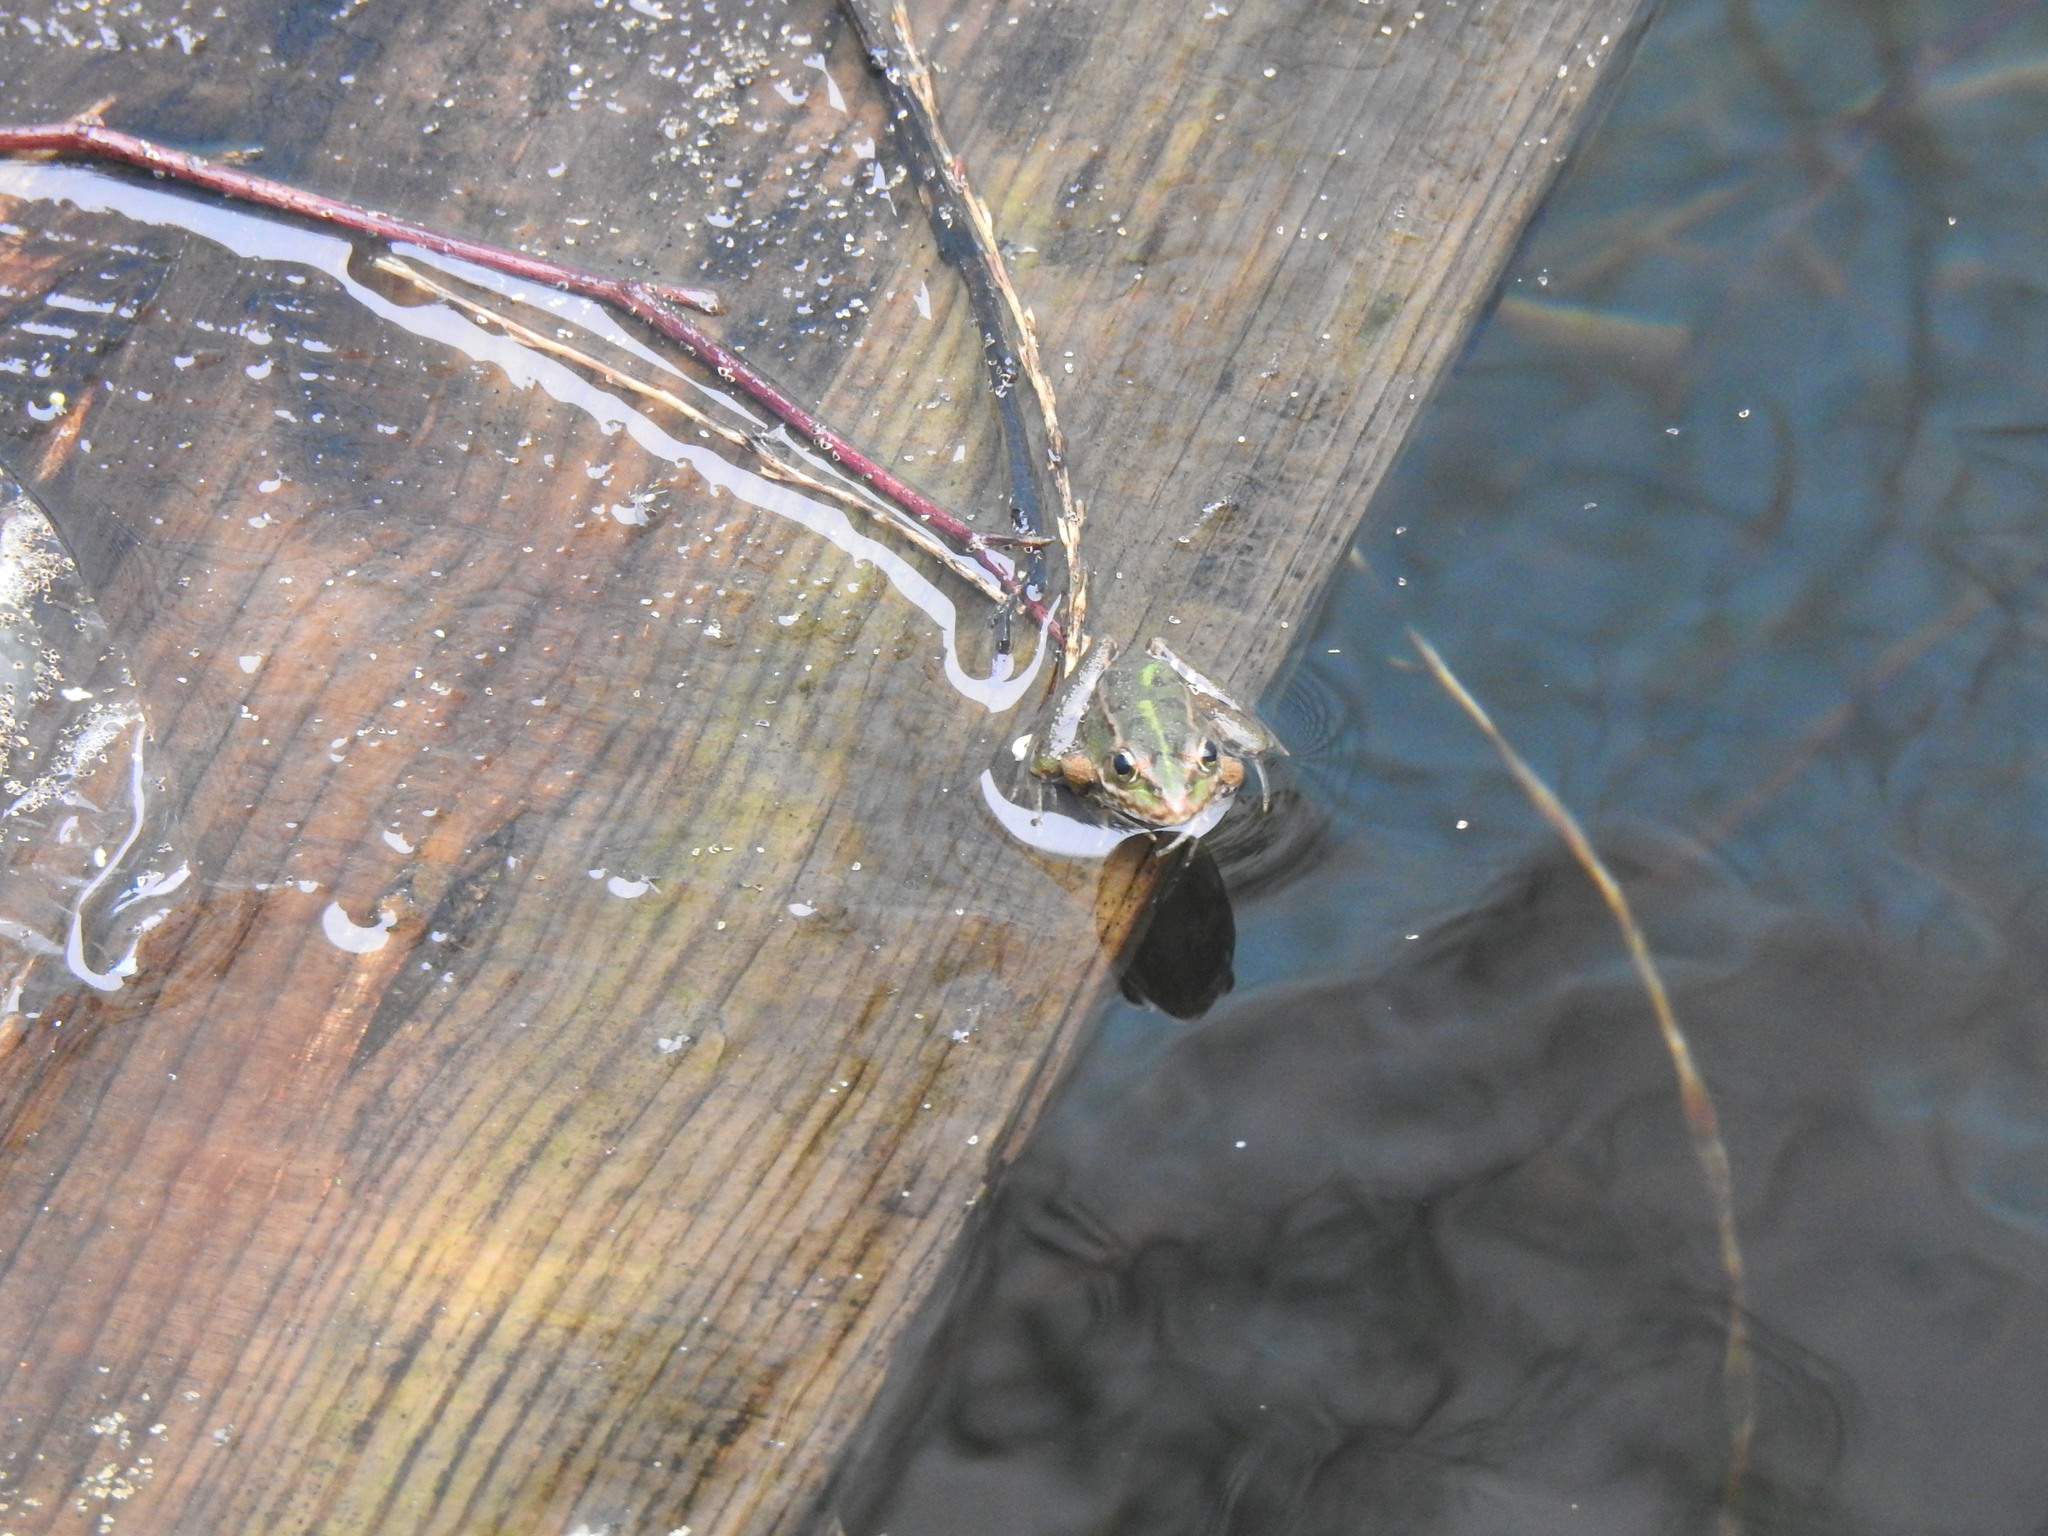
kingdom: Animalia
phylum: Chordata
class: Amphibia
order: Anura
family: Ranidae
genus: Pelophylax
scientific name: Pelophylax perezi
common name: Perez's frog
